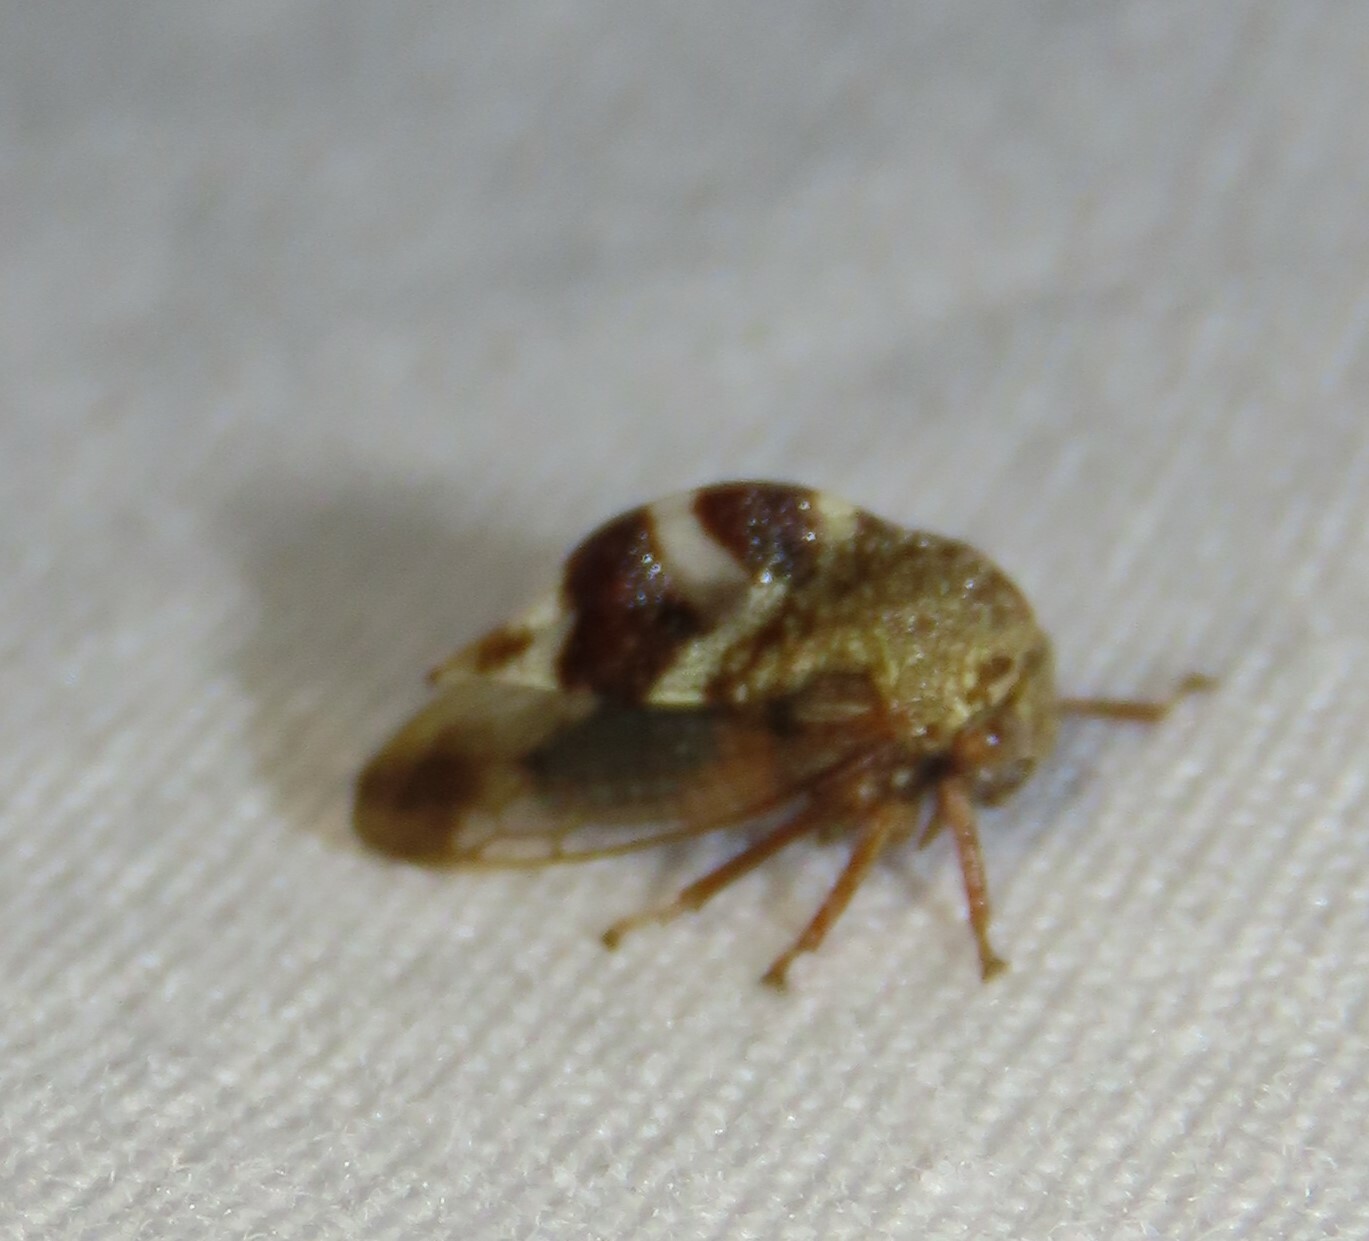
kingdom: Animalia
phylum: Arthropoda
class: Insecta
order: Hemiptera
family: Membracidae
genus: Cyrtolobus
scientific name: Cyrtolobus tuberosa
